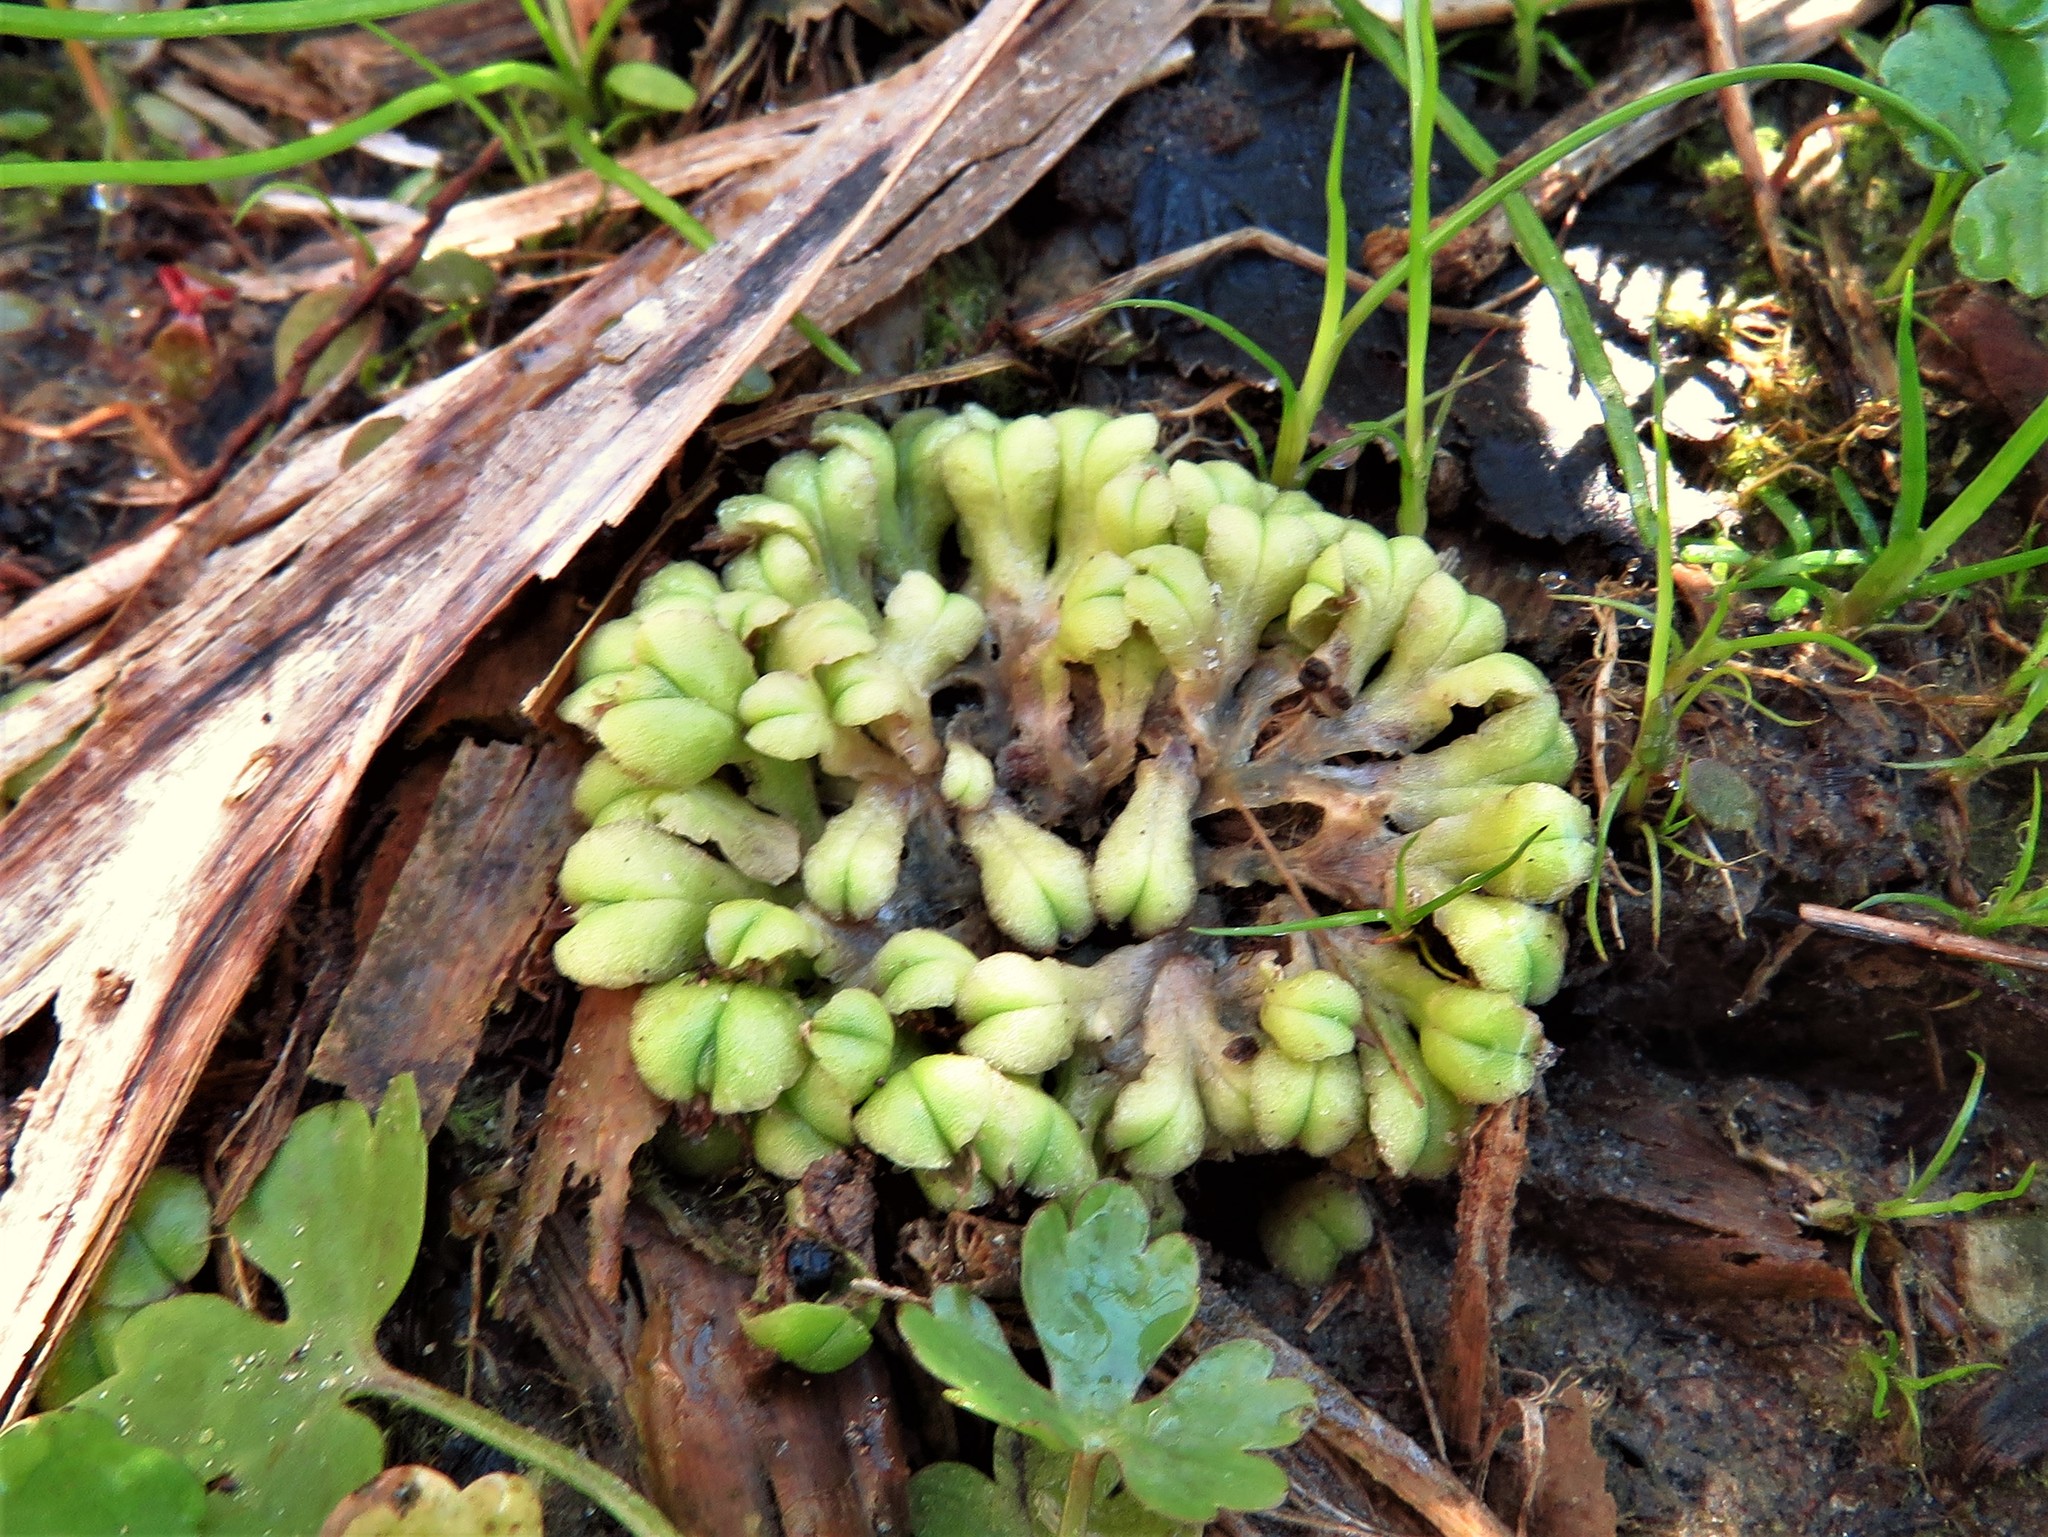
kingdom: Plantae
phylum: Marchantiophyta
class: Marchantiopsida
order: Marchantiales
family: Ricciaceae
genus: Ricciocarpos
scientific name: Ricciocarpos natans
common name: Purple-fringed liverwort
